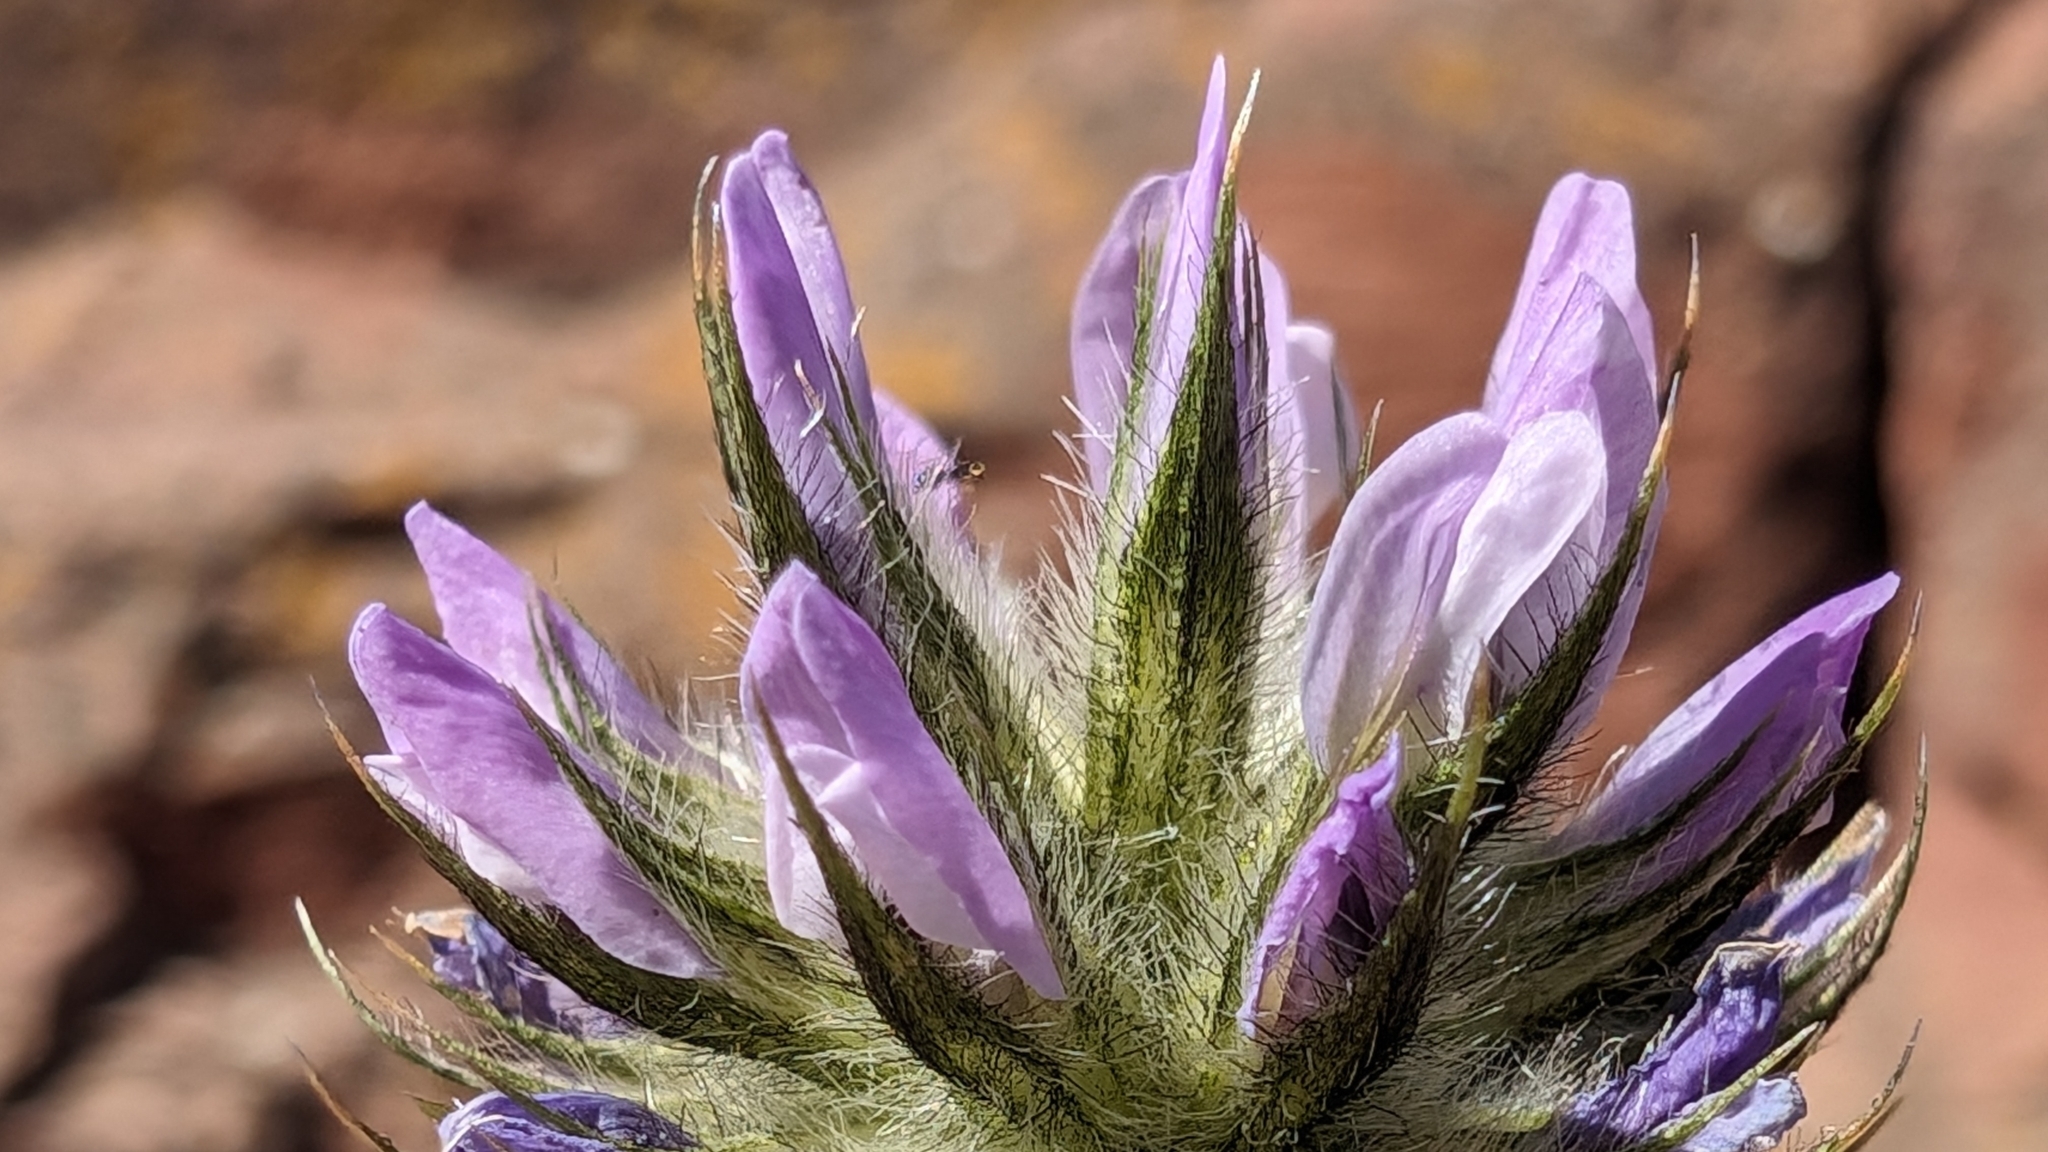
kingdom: Plantae
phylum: Tracheophyta
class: Magnoliopsida
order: Fabales
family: Fabaceae
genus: Bituminaria
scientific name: Bituminaria bituminosa
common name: Arabian pea
